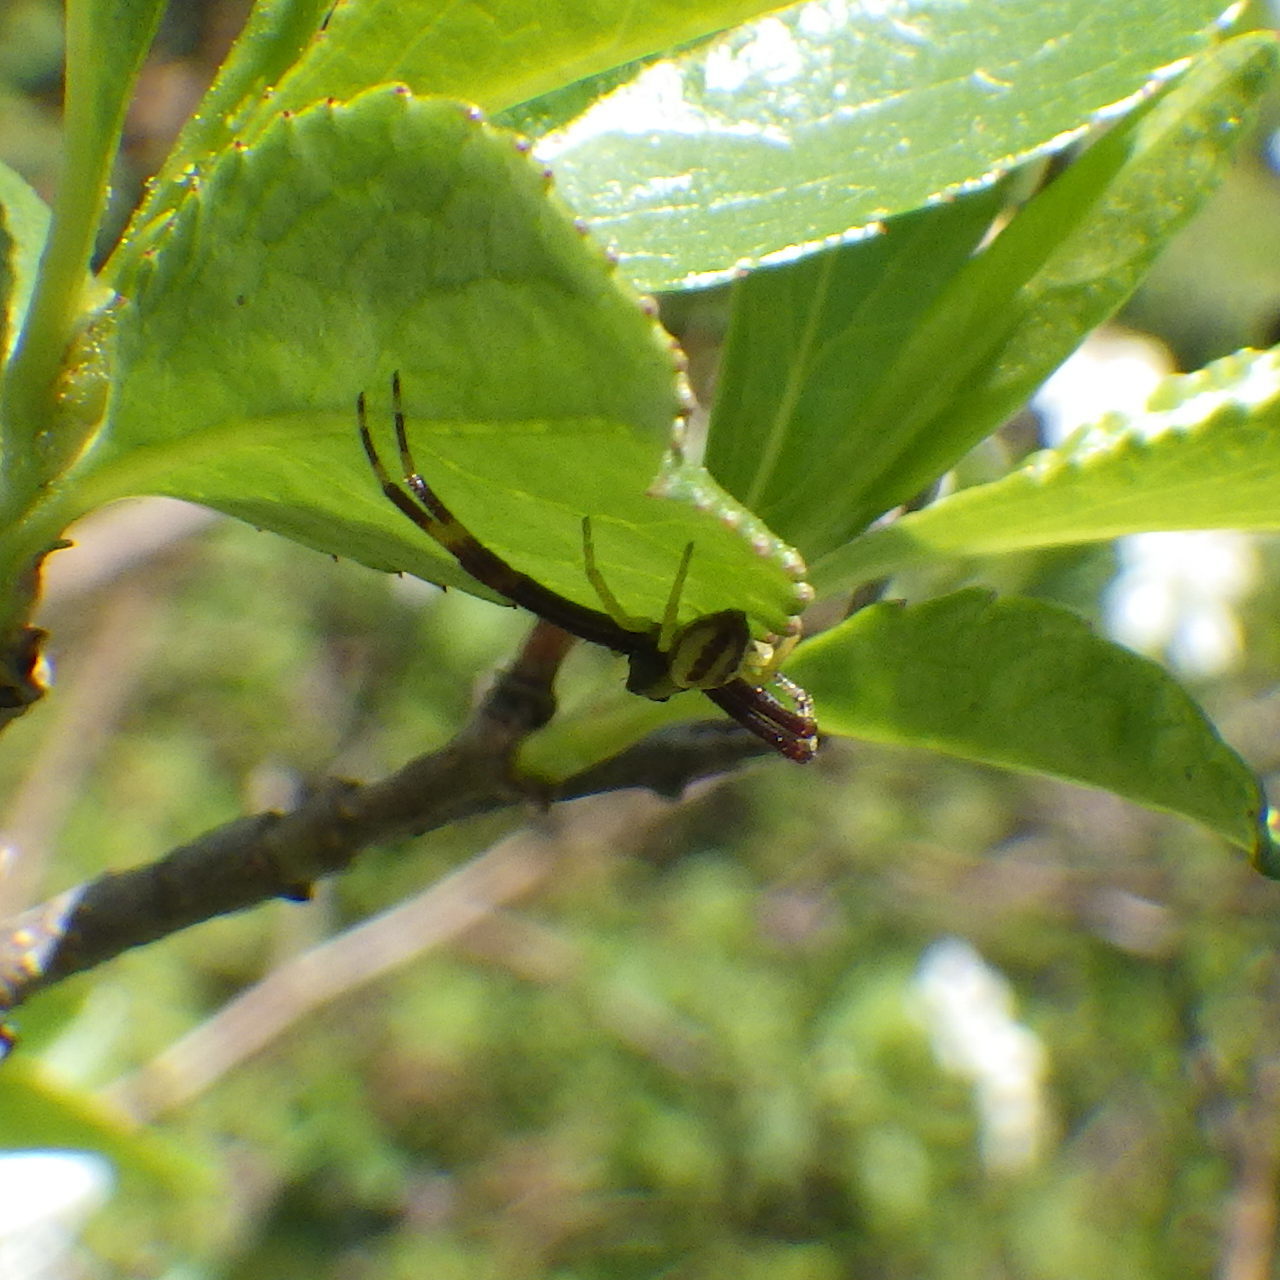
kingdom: Animalia
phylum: Arthropoda
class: Arachnida
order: Araneae
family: Thomisidae
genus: Misumena
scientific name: Misumena vatia
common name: Goldenrod crab spider
